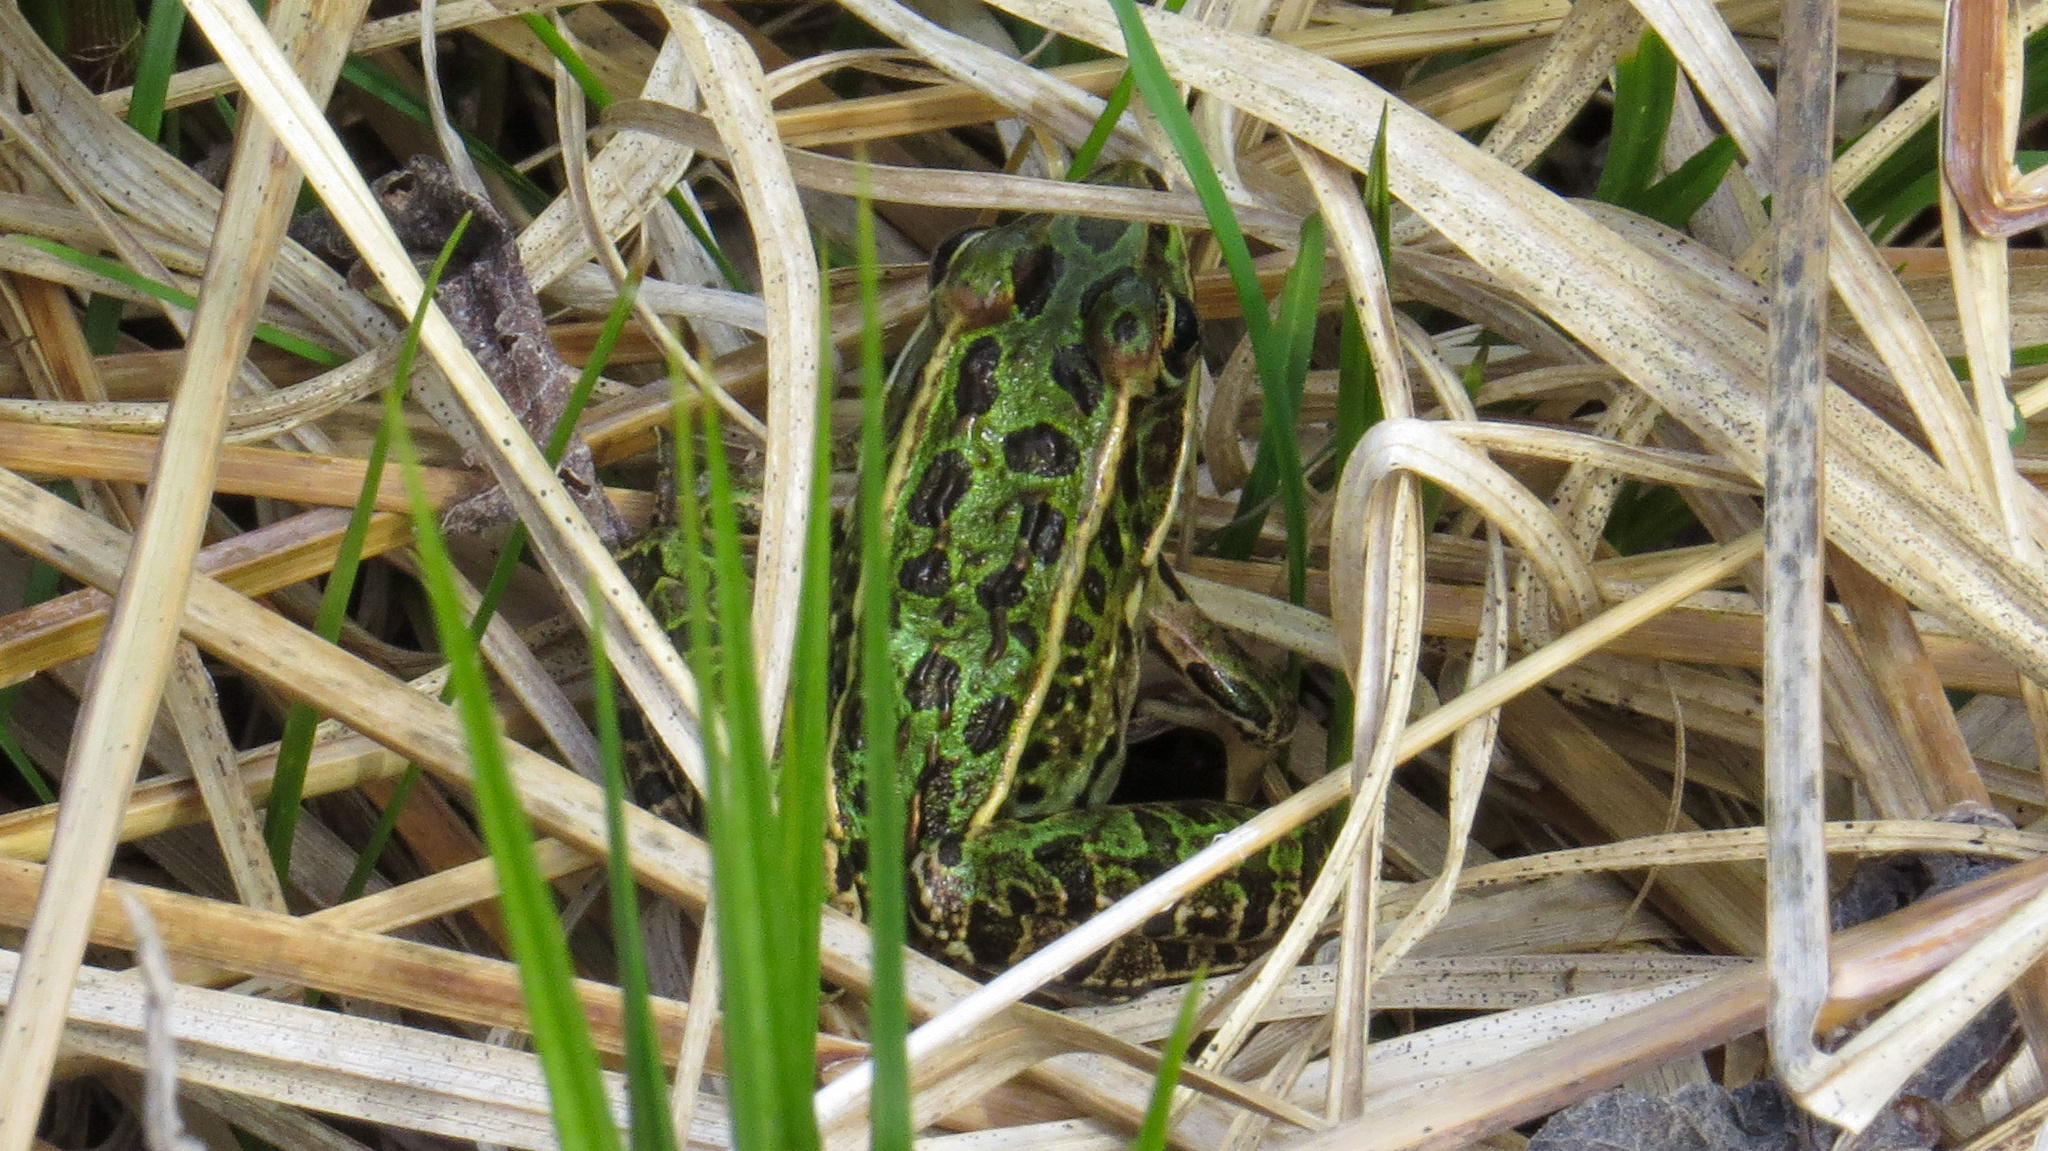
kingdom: Animalia
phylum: Chordata
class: Amphibia
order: Anura
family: Ranidae
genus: Lithobates
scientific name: Lithobates pipiens
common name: Northern leopard frog
